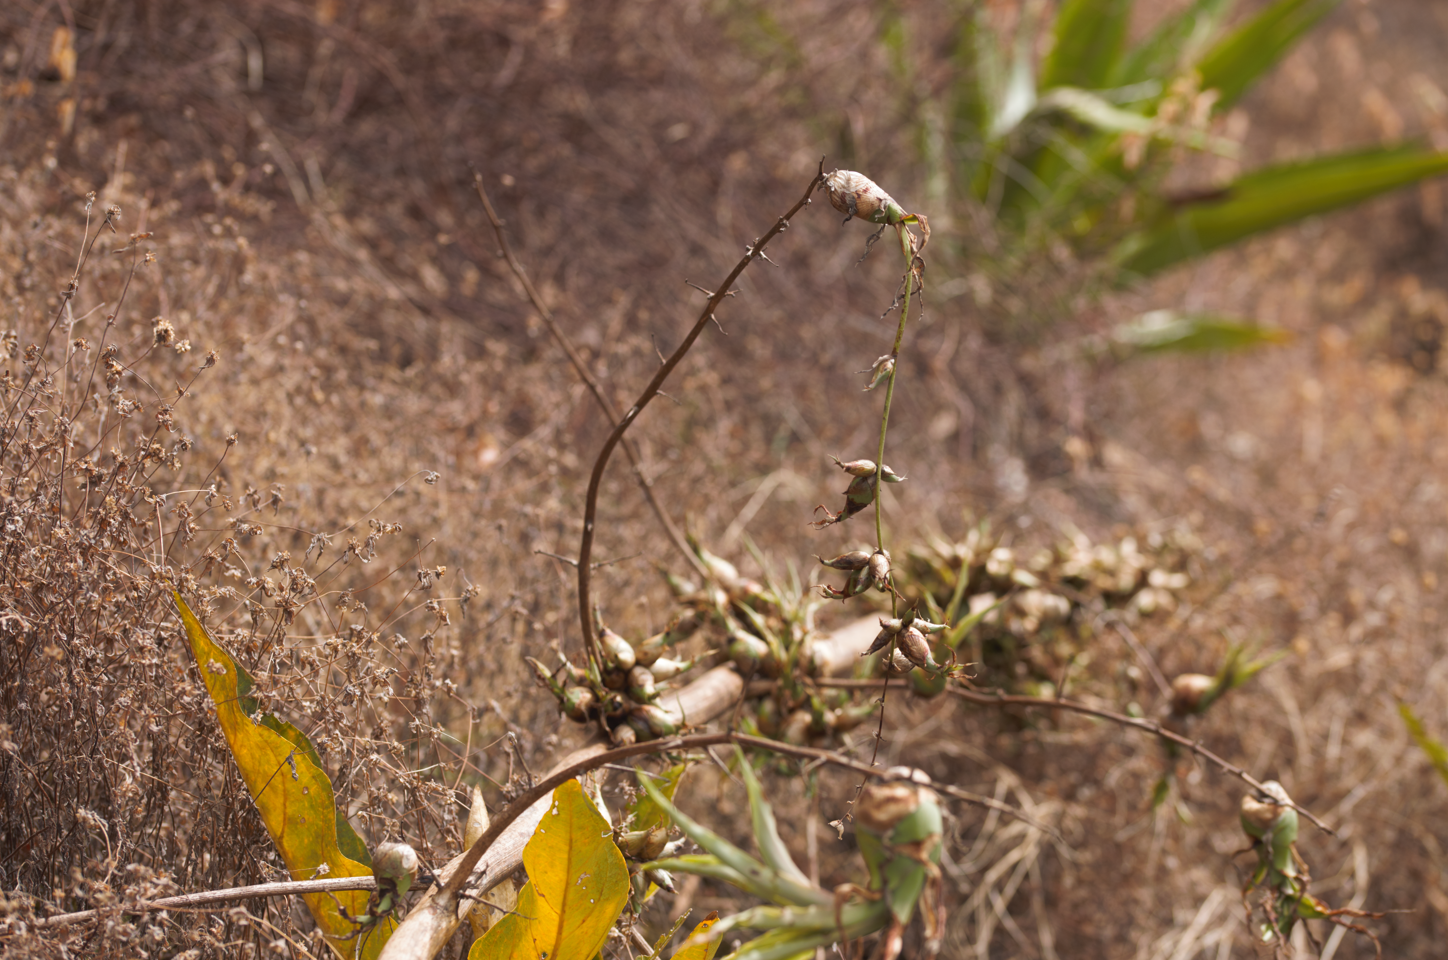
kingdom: Plantae
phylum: Tracheophyta
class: Liliopsida
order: Asparagales
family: Asparagaceae
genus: Furcraea
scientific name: Furcraea foetida
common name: Mauritius hemp
